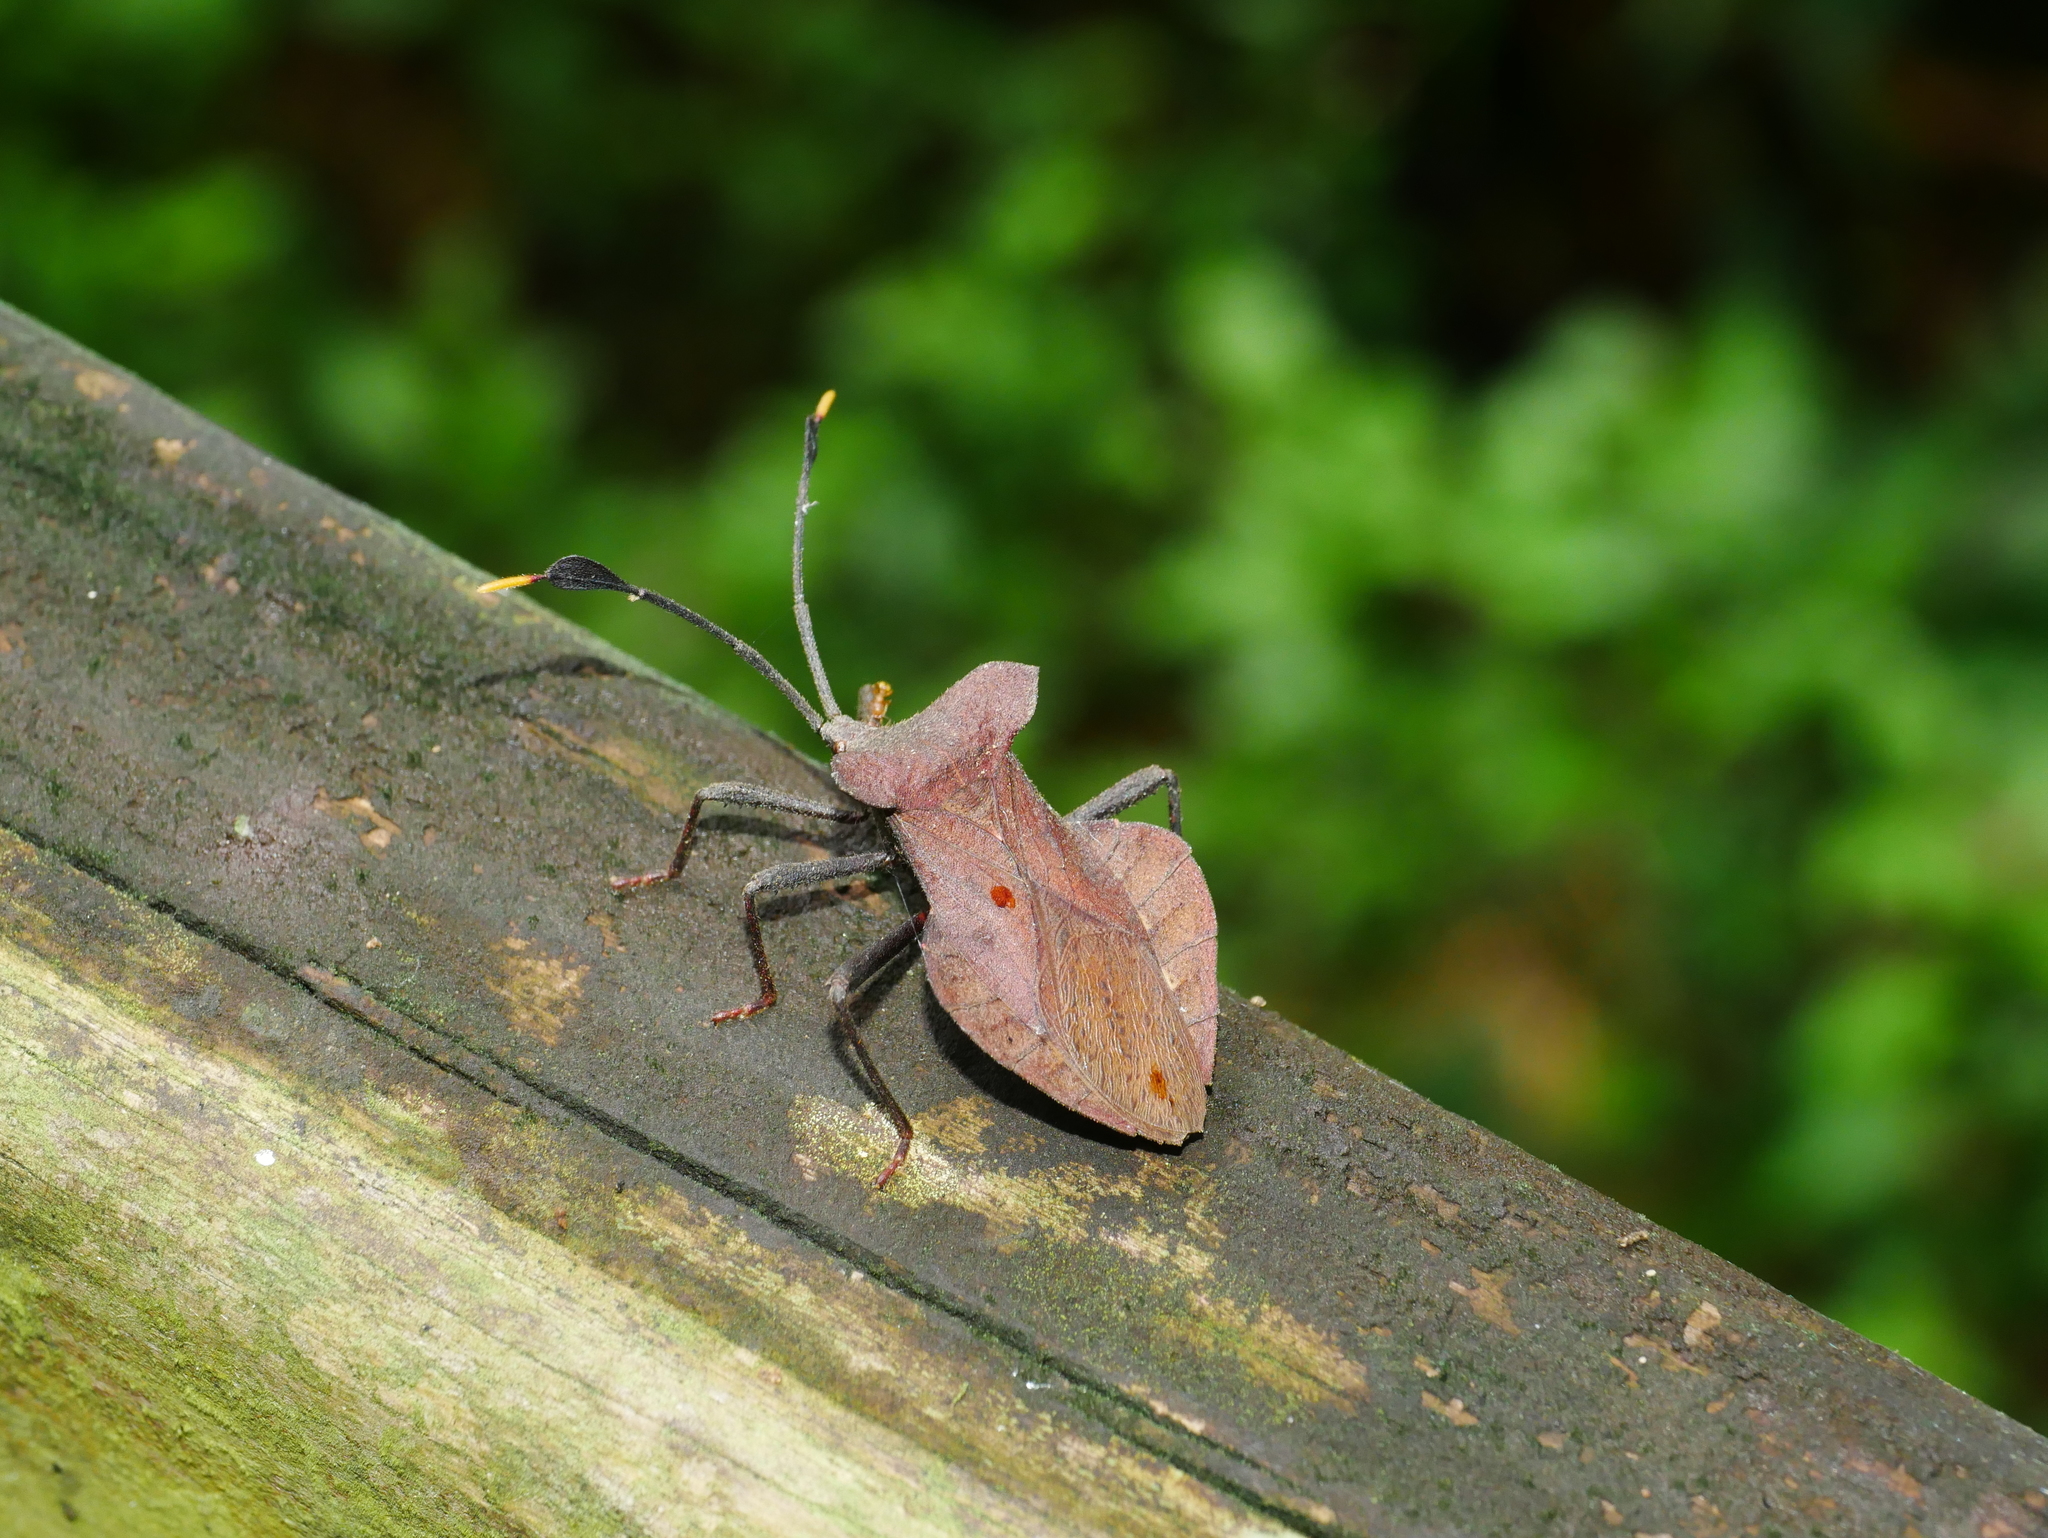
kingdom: Animalia
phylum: Arthropoda
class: Insecta
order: Hemiptera
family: Coreidae
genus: Dalader
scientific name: Dalader formosanus
